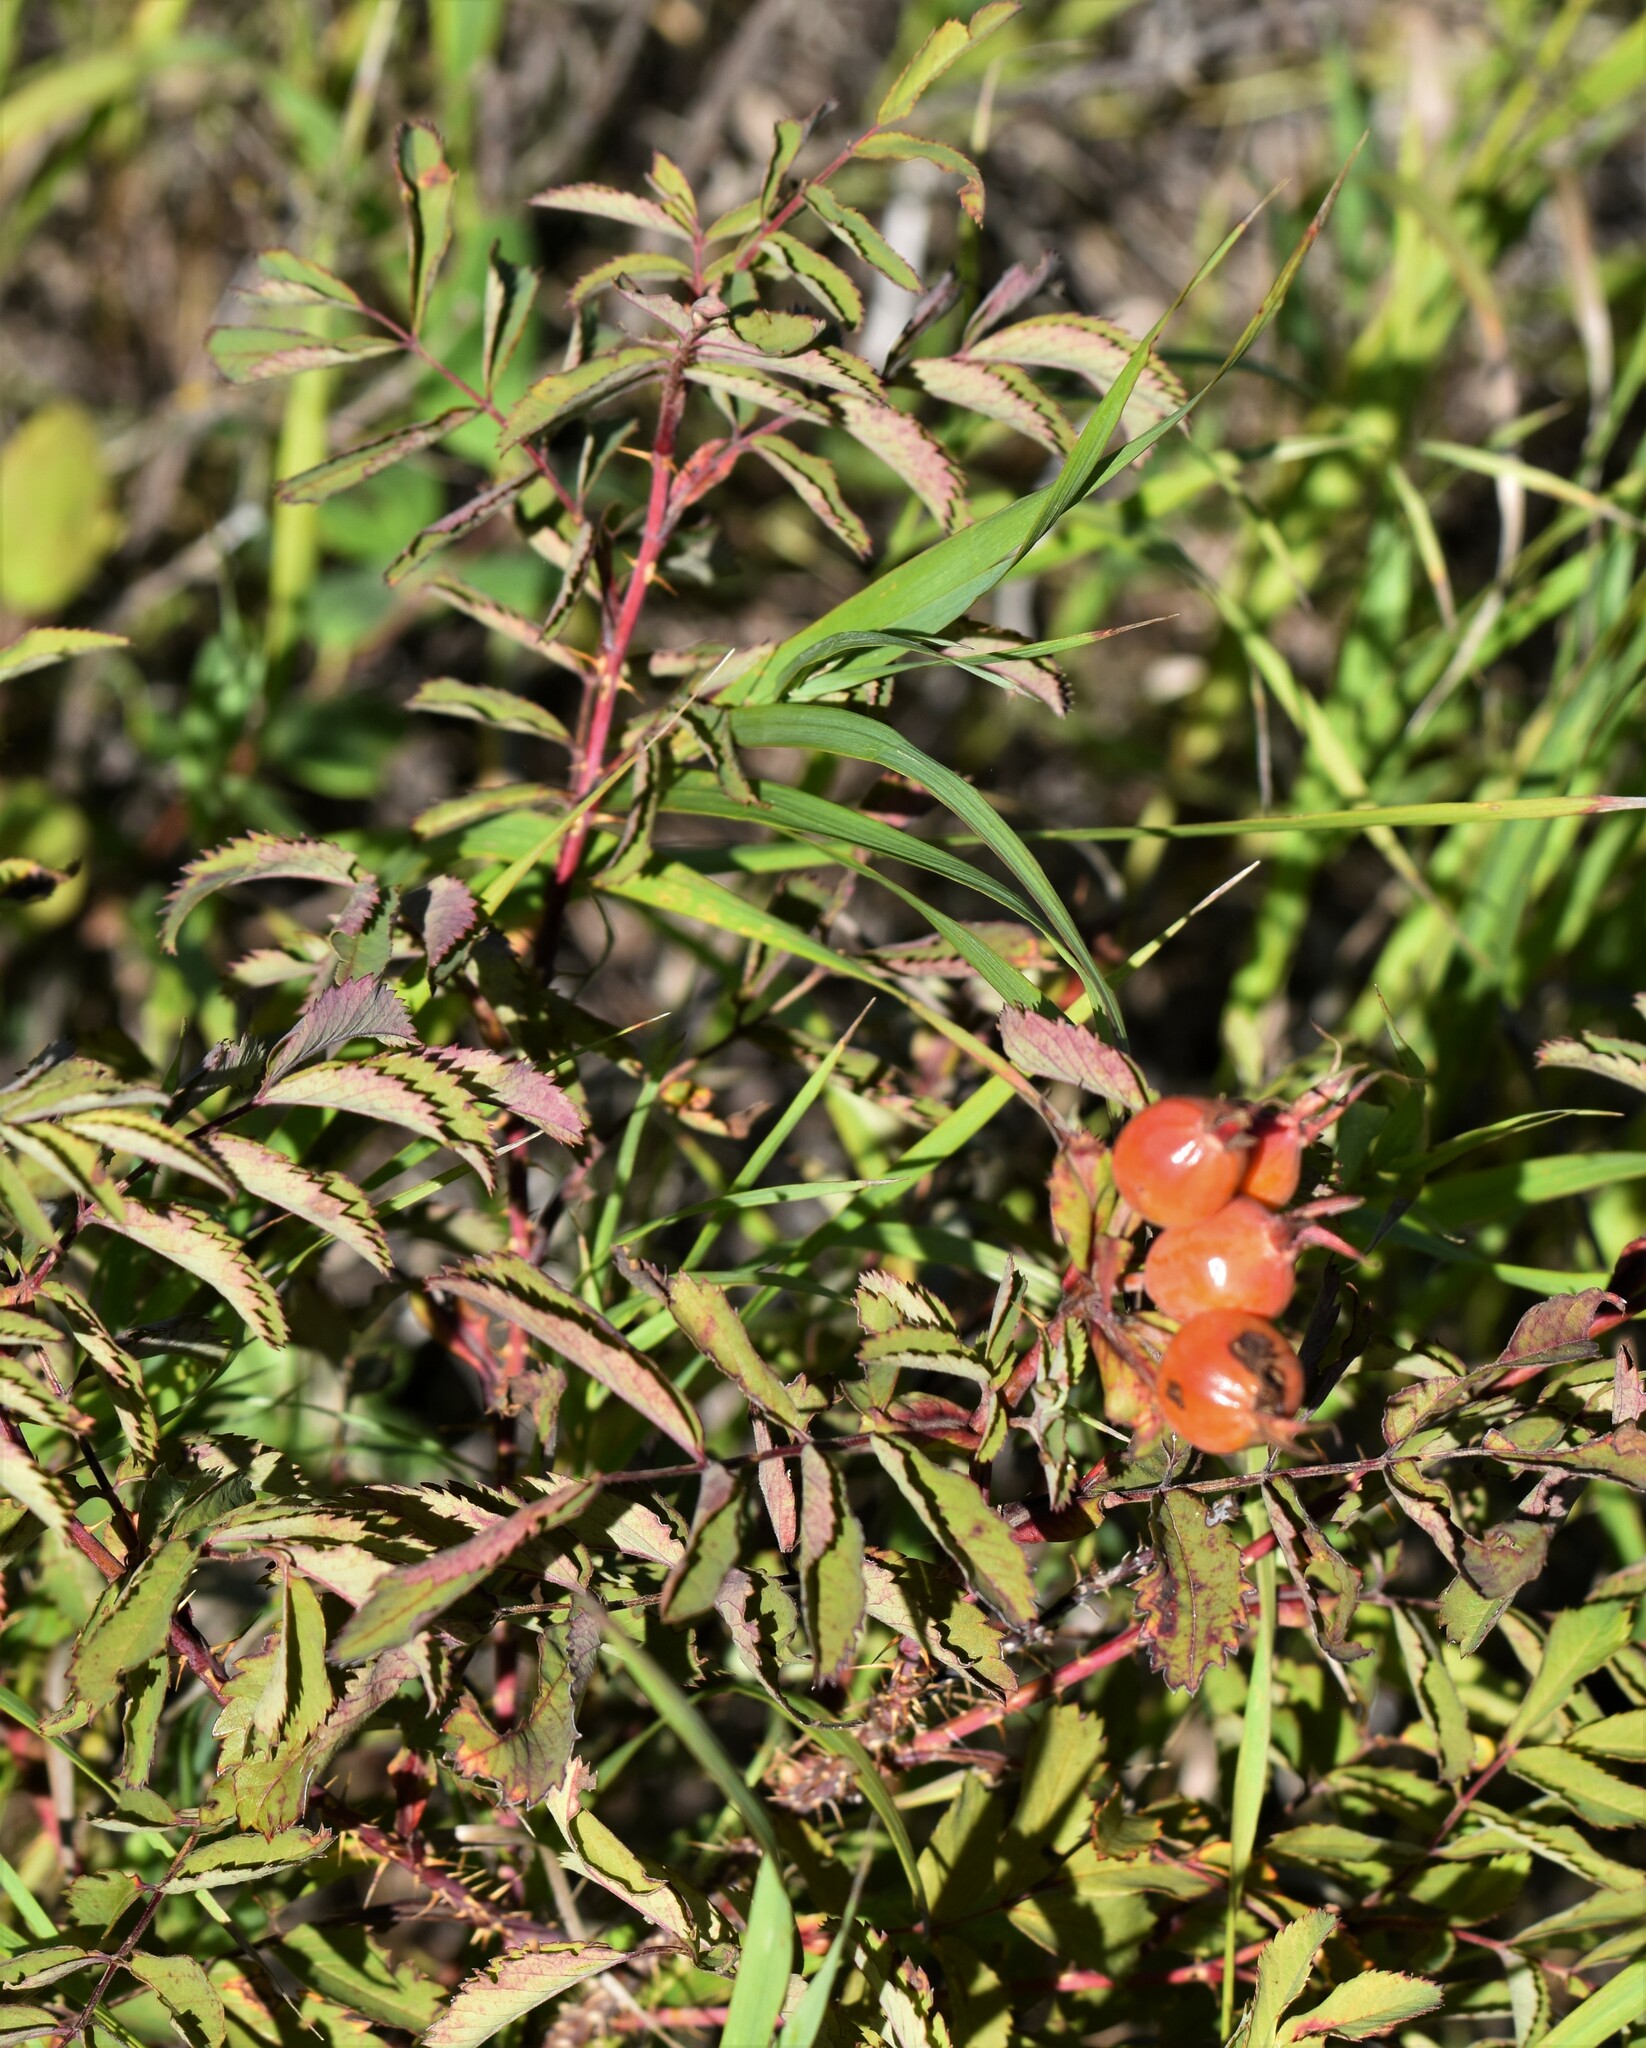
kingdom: Plantae
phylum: Tracheophyta
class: Magnoliopsida
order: Rosales
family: Rosaceae
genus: Rosa
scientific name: Rosa woodsii
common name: Woods's rose
